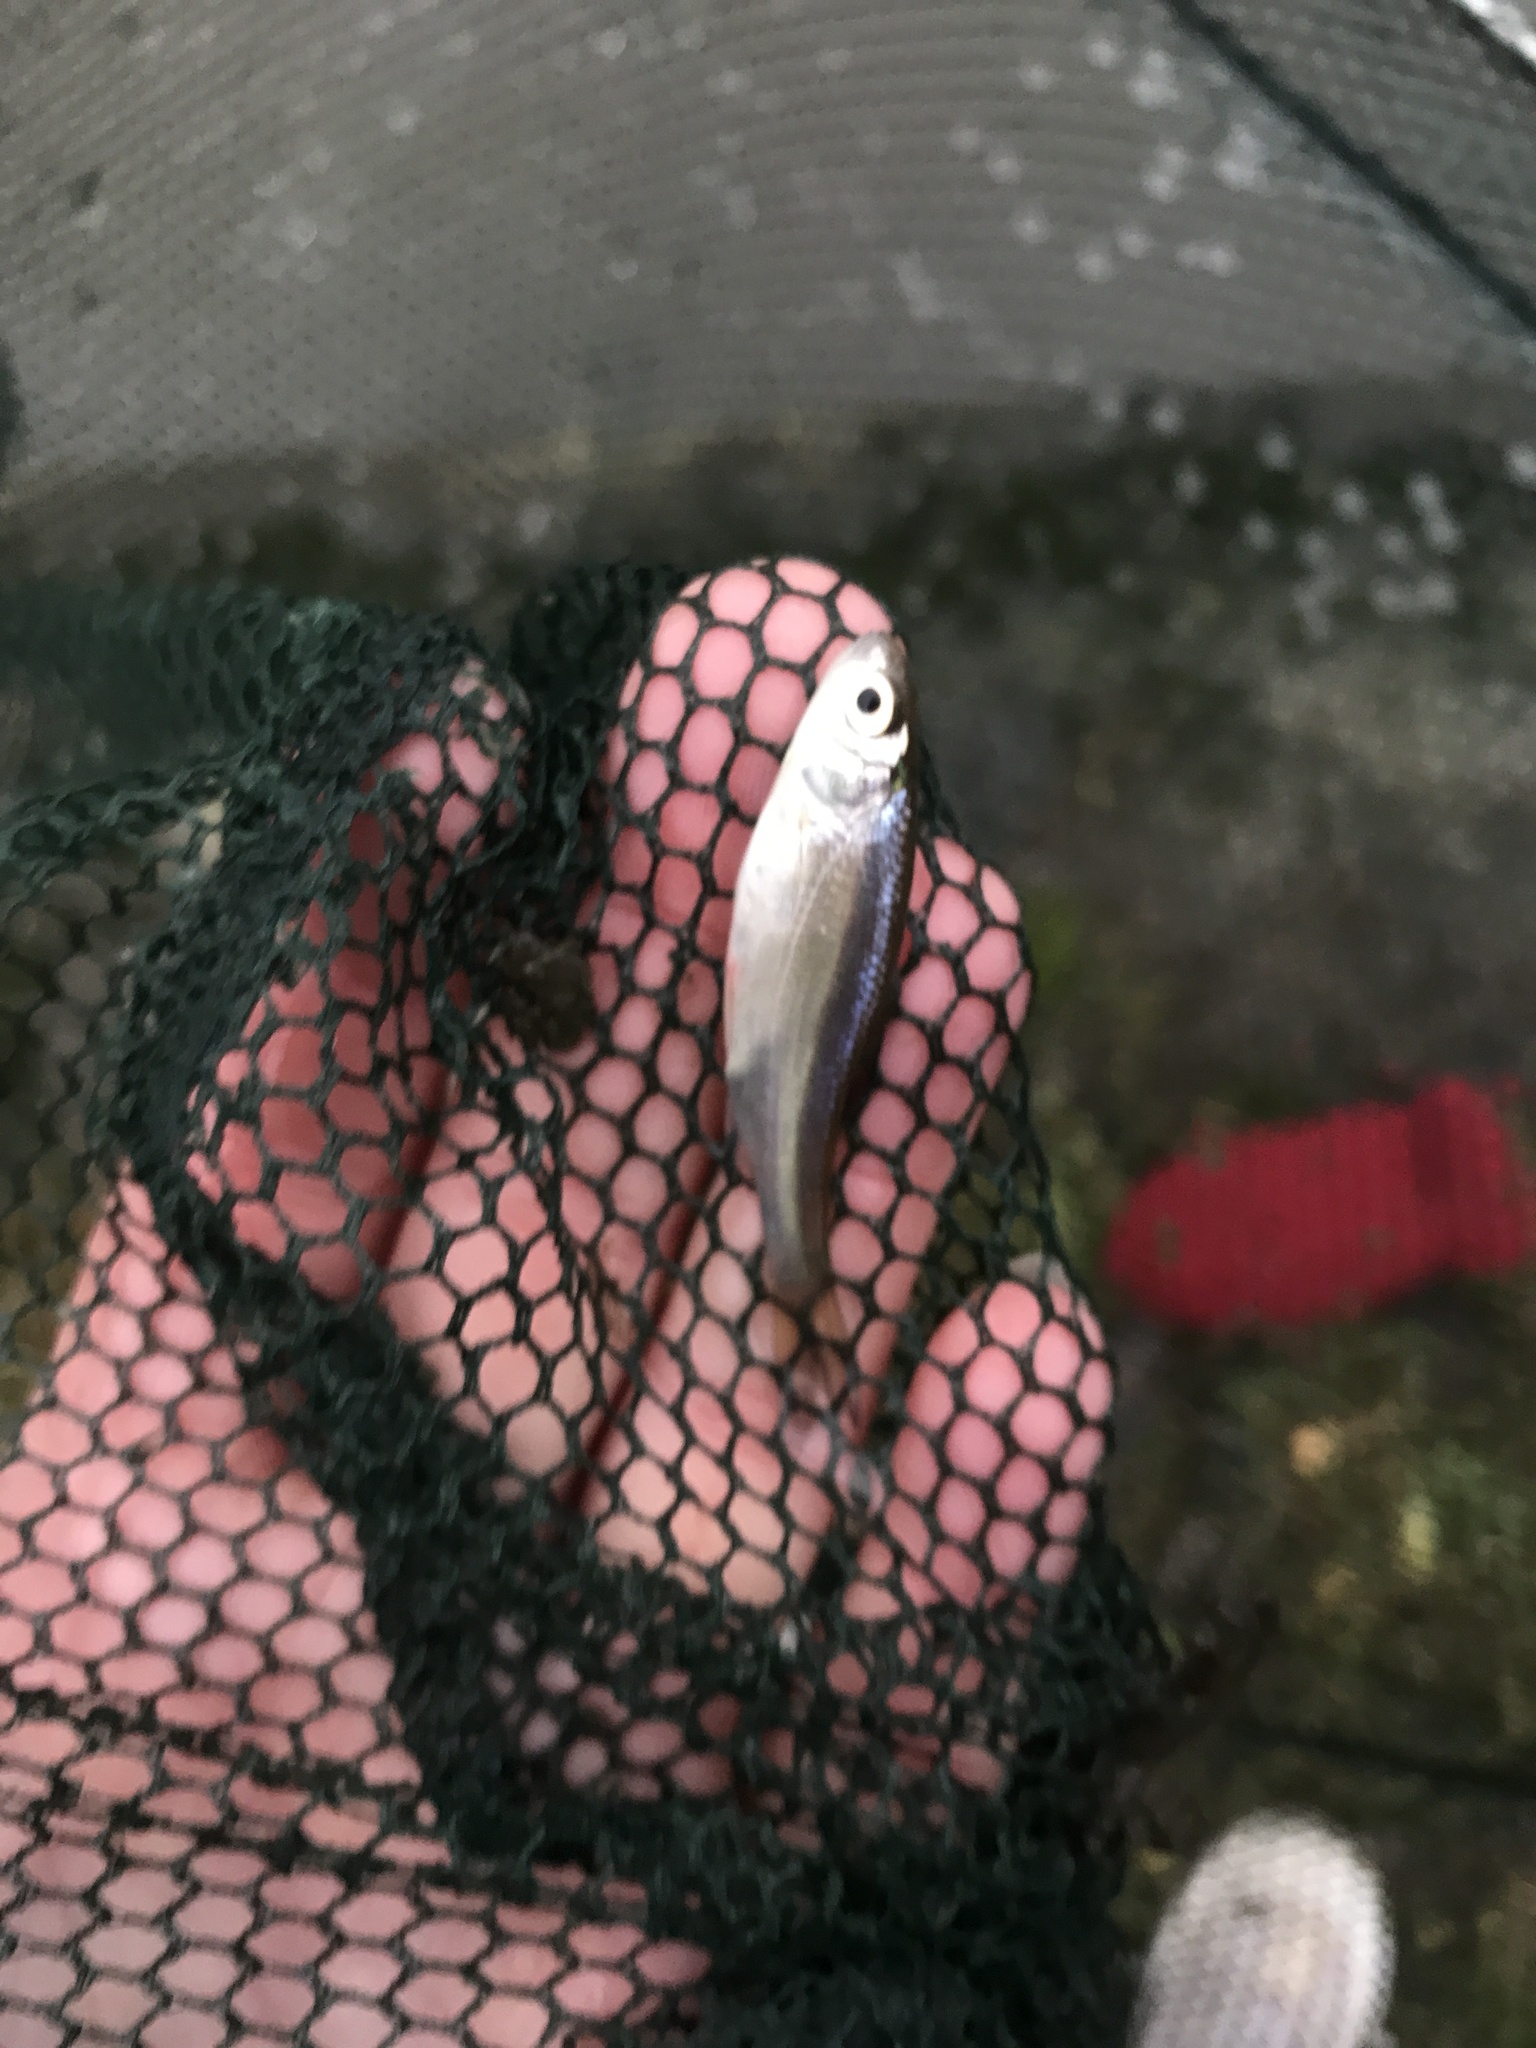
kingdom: Animalia
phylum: Chordata
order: Cypriniformes
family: Cyprinidae
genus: Rutilus
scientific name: Rutilus rutilus
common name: Roach
